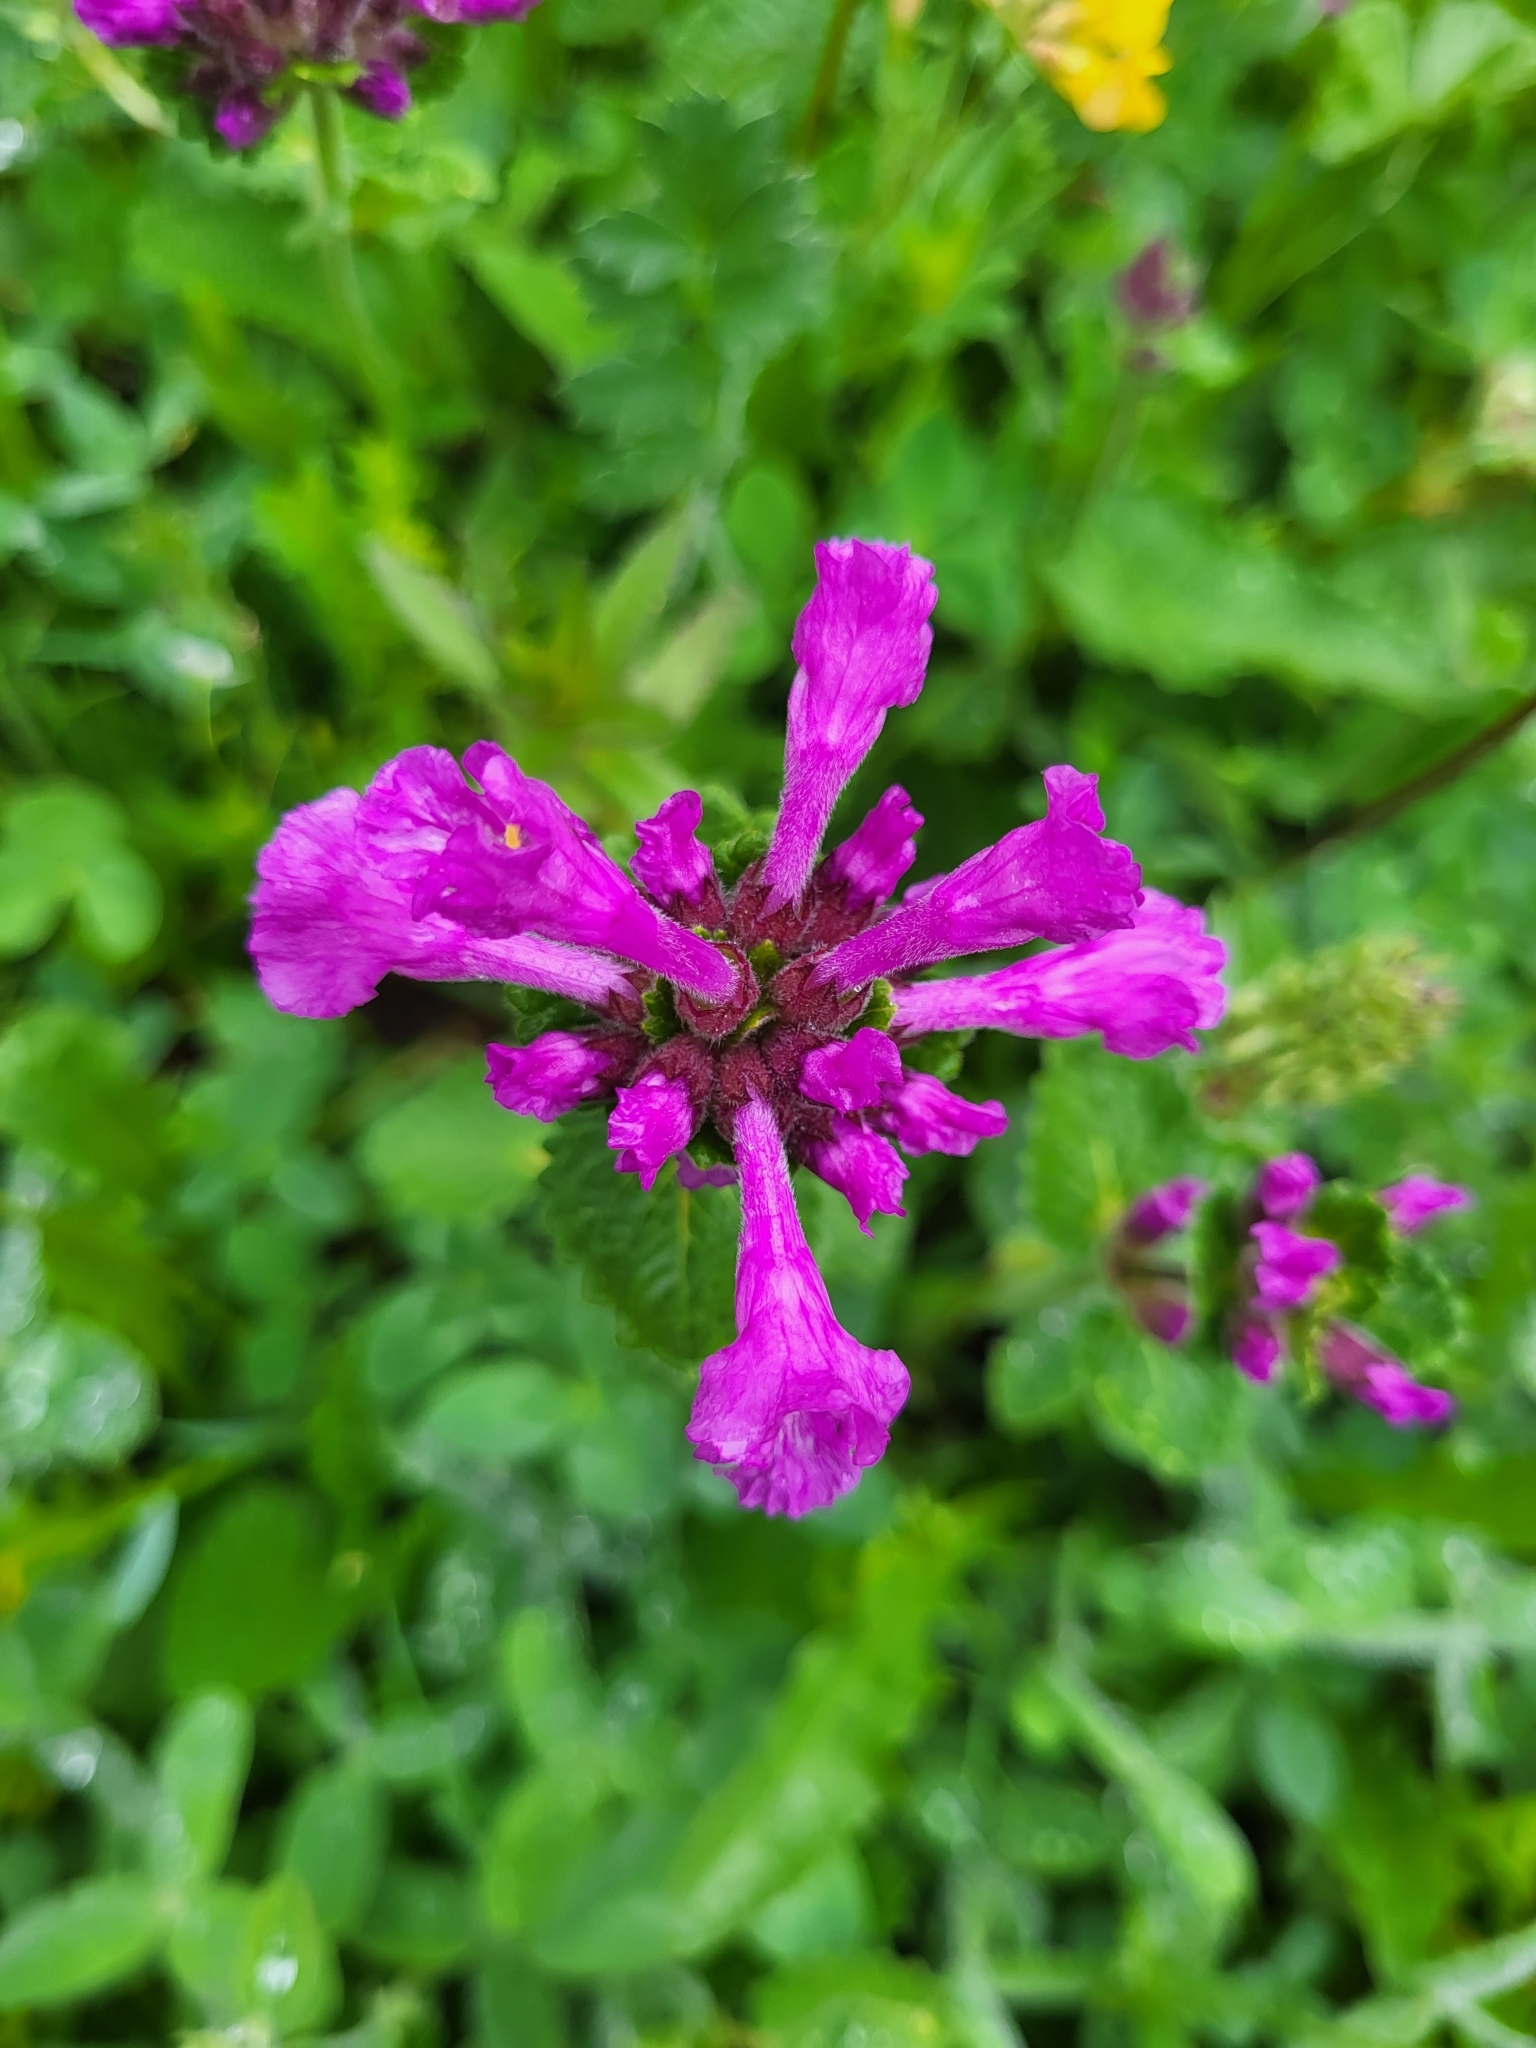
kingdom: Plantae
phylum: Tracheophyta
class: Magnoliopsida
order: Lamiales
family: Lamiaceae
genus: Betonica
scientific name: Betonica macrantha
